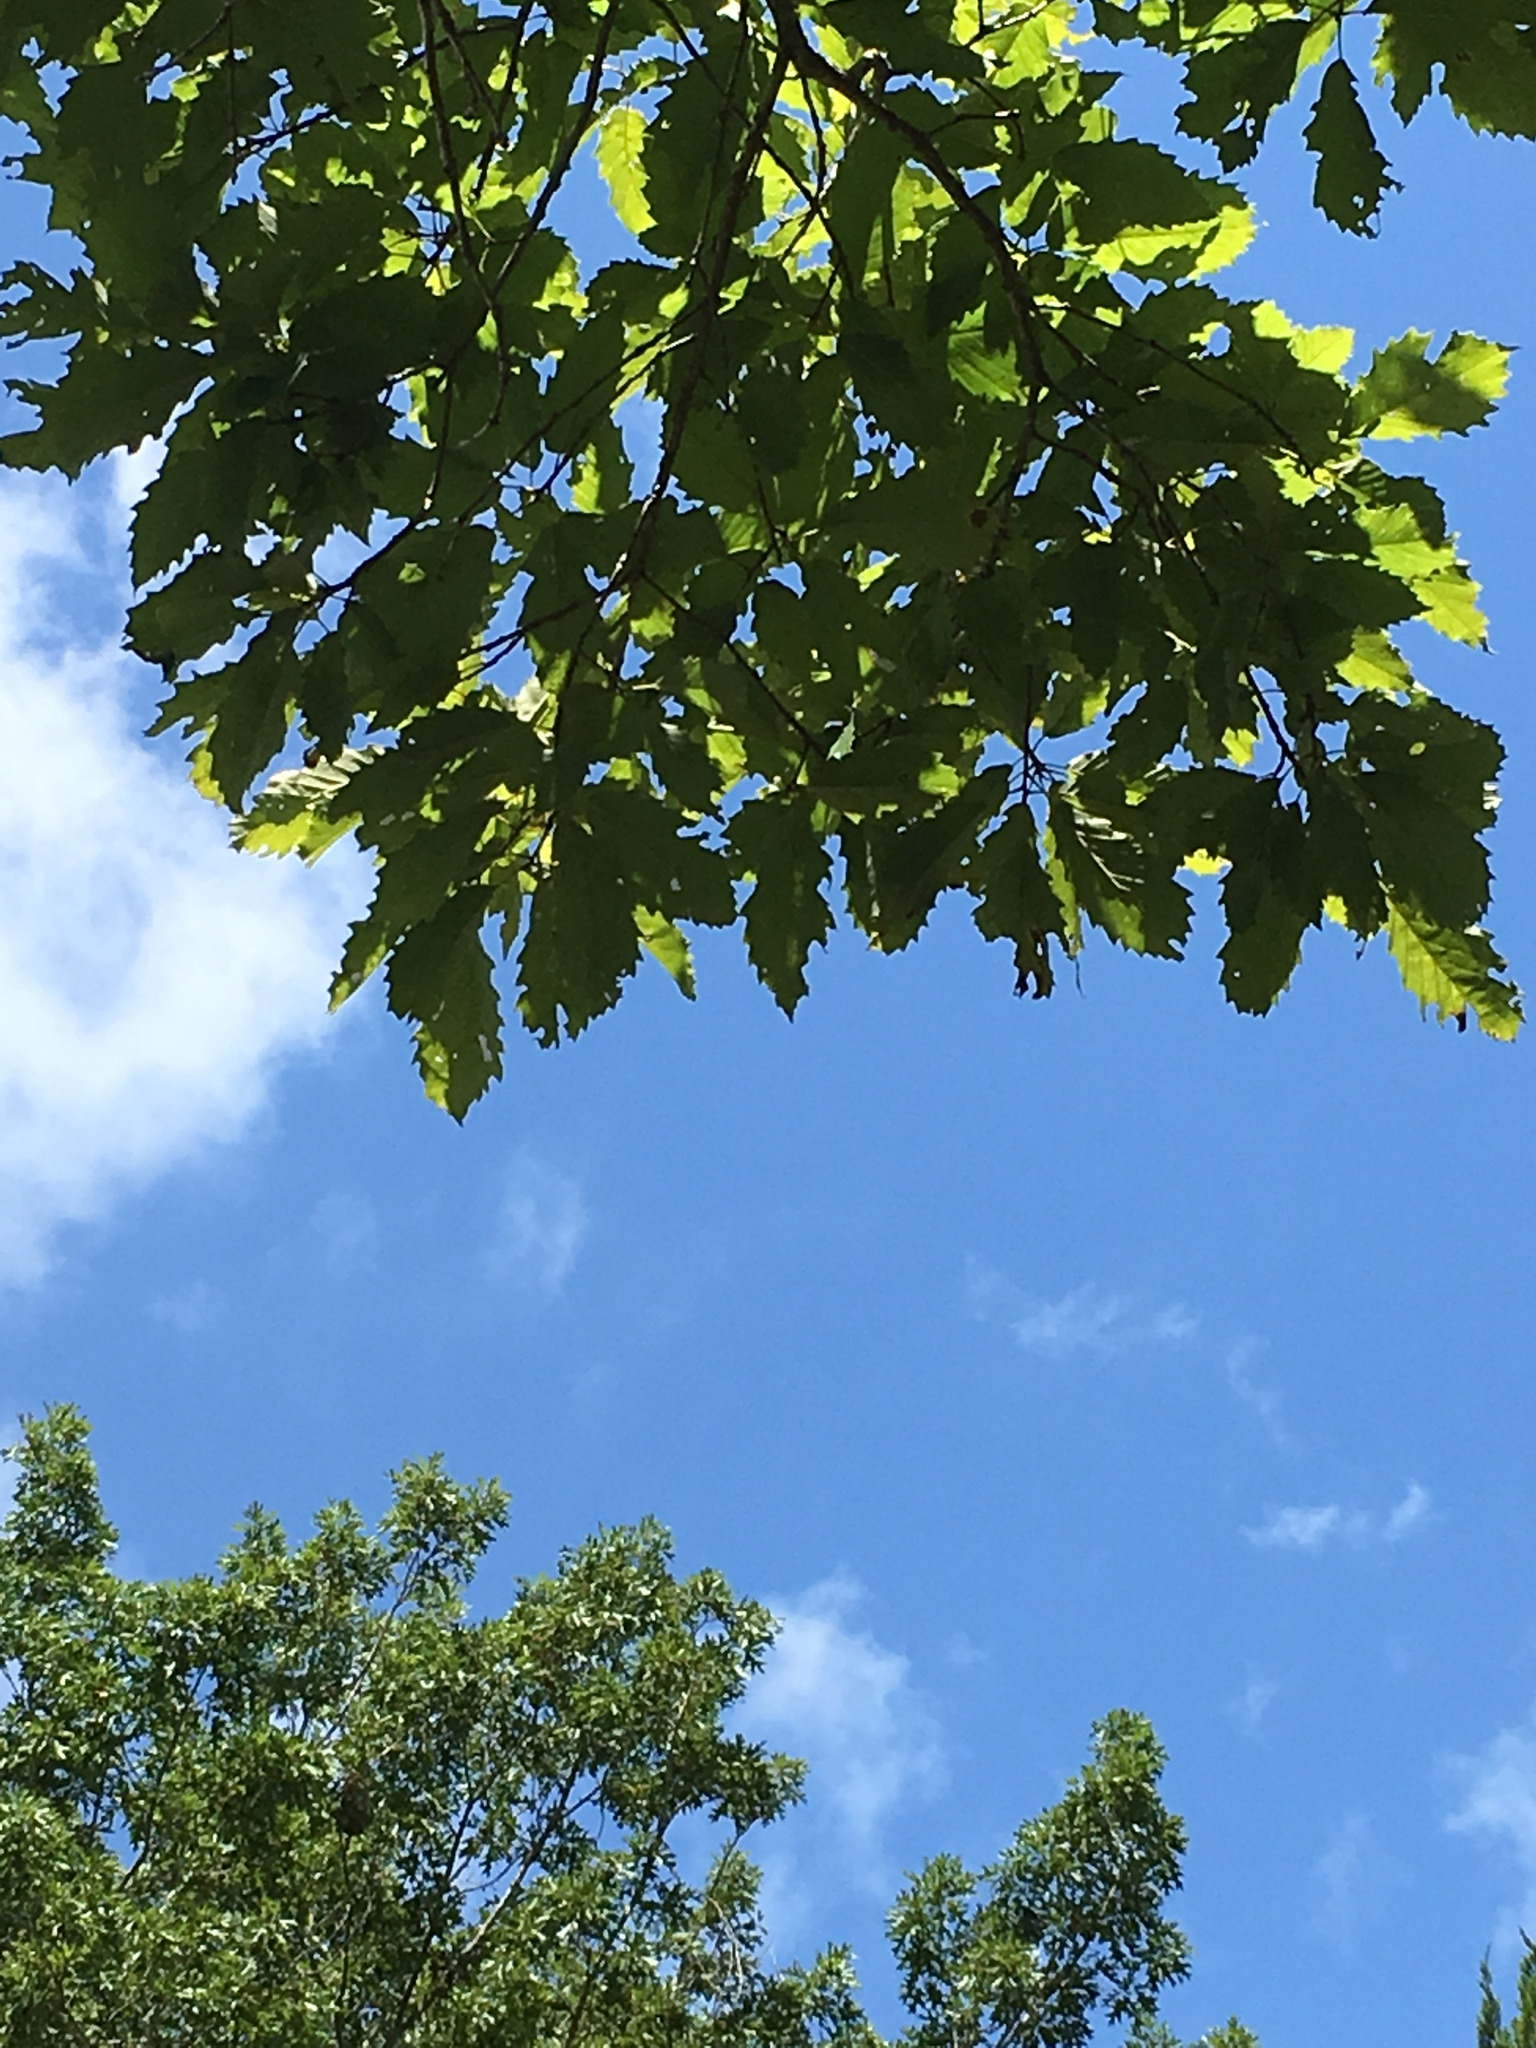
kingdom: Plantae
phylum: Tracheophyta
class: Magnoliopsida
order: Fagales
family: Fagaceae
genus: Quercus
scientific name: Quercus muehlenbergii
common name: Chinkapin oak
